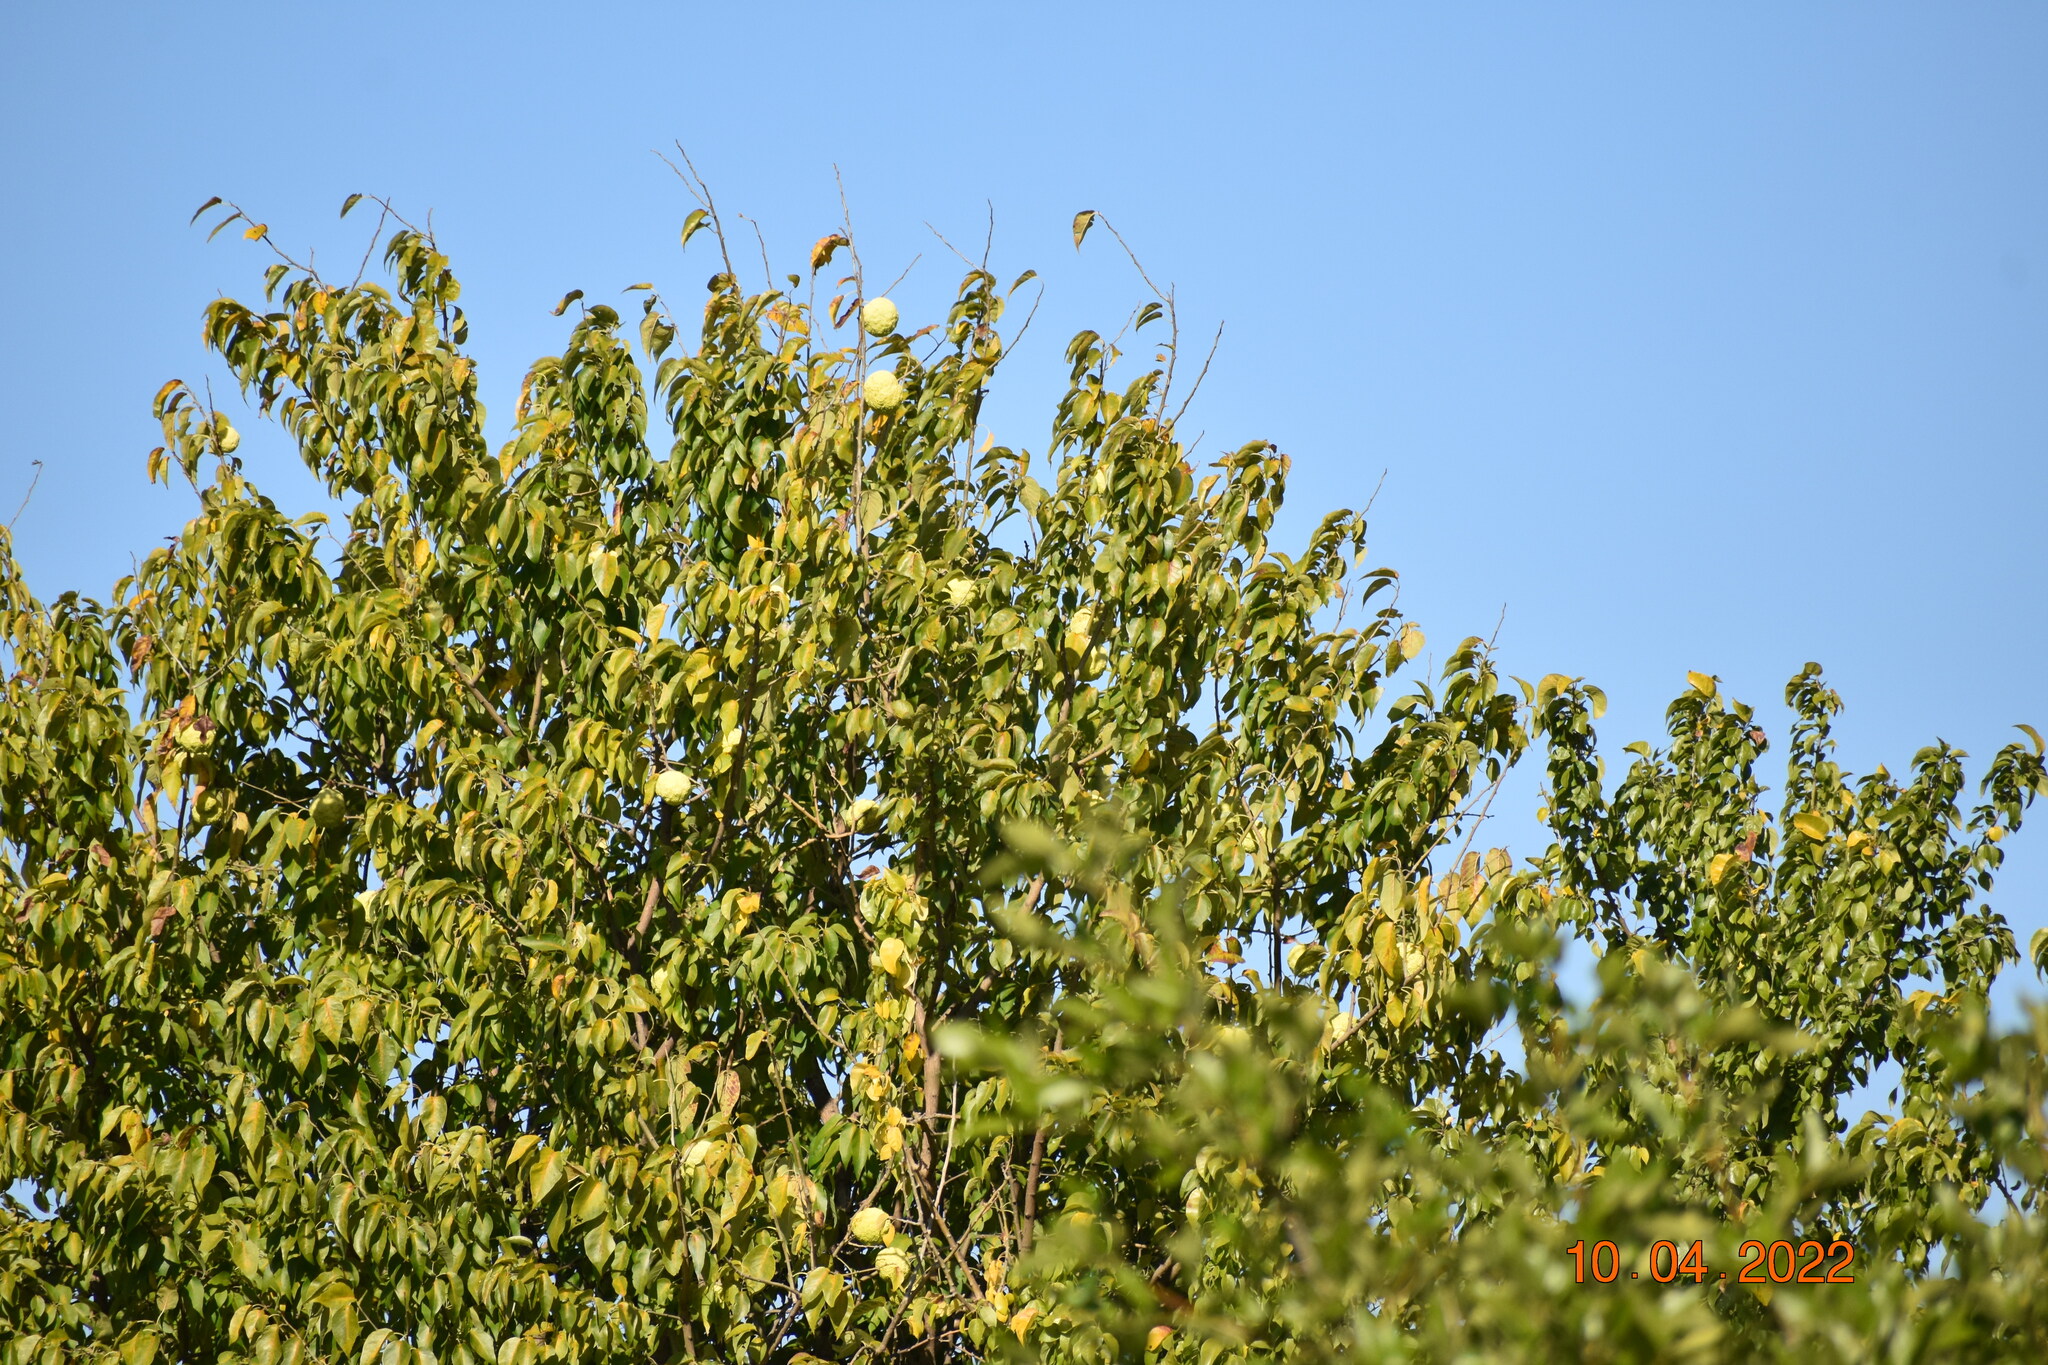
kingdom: Plantae
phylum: Tracheophyta
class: Magnoliopsida
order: Rosales
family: Moraceae
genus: Maclura
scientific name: Maclura pomifera
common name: Osage-orange
